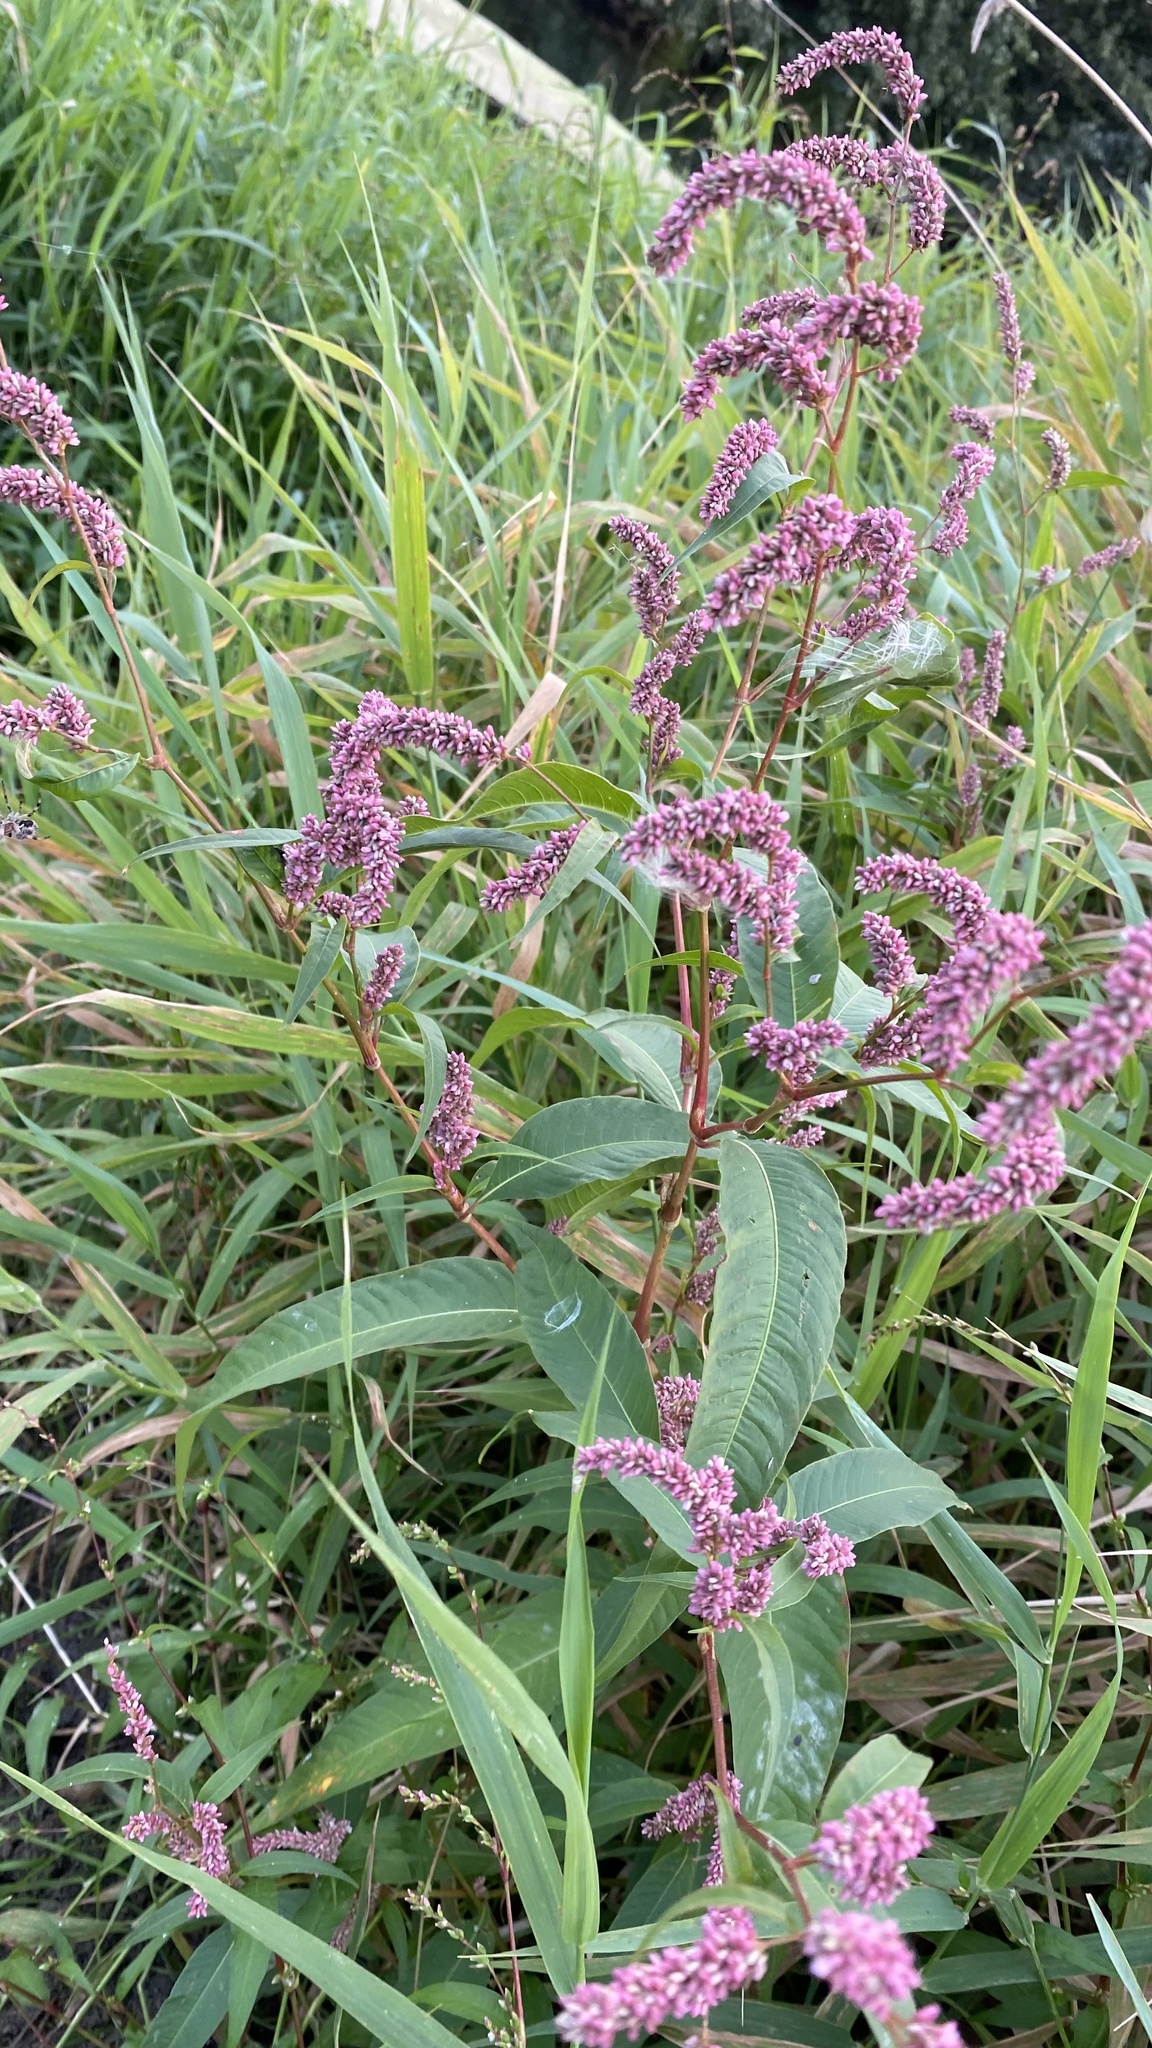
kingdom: Plantae
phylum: Tracheophyta
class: Magnoliopsida
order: Caryophyllales
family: Polygonaceae
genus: Persicaria
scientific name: Persicaria lapathifolia
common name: Curlytop knotweed
